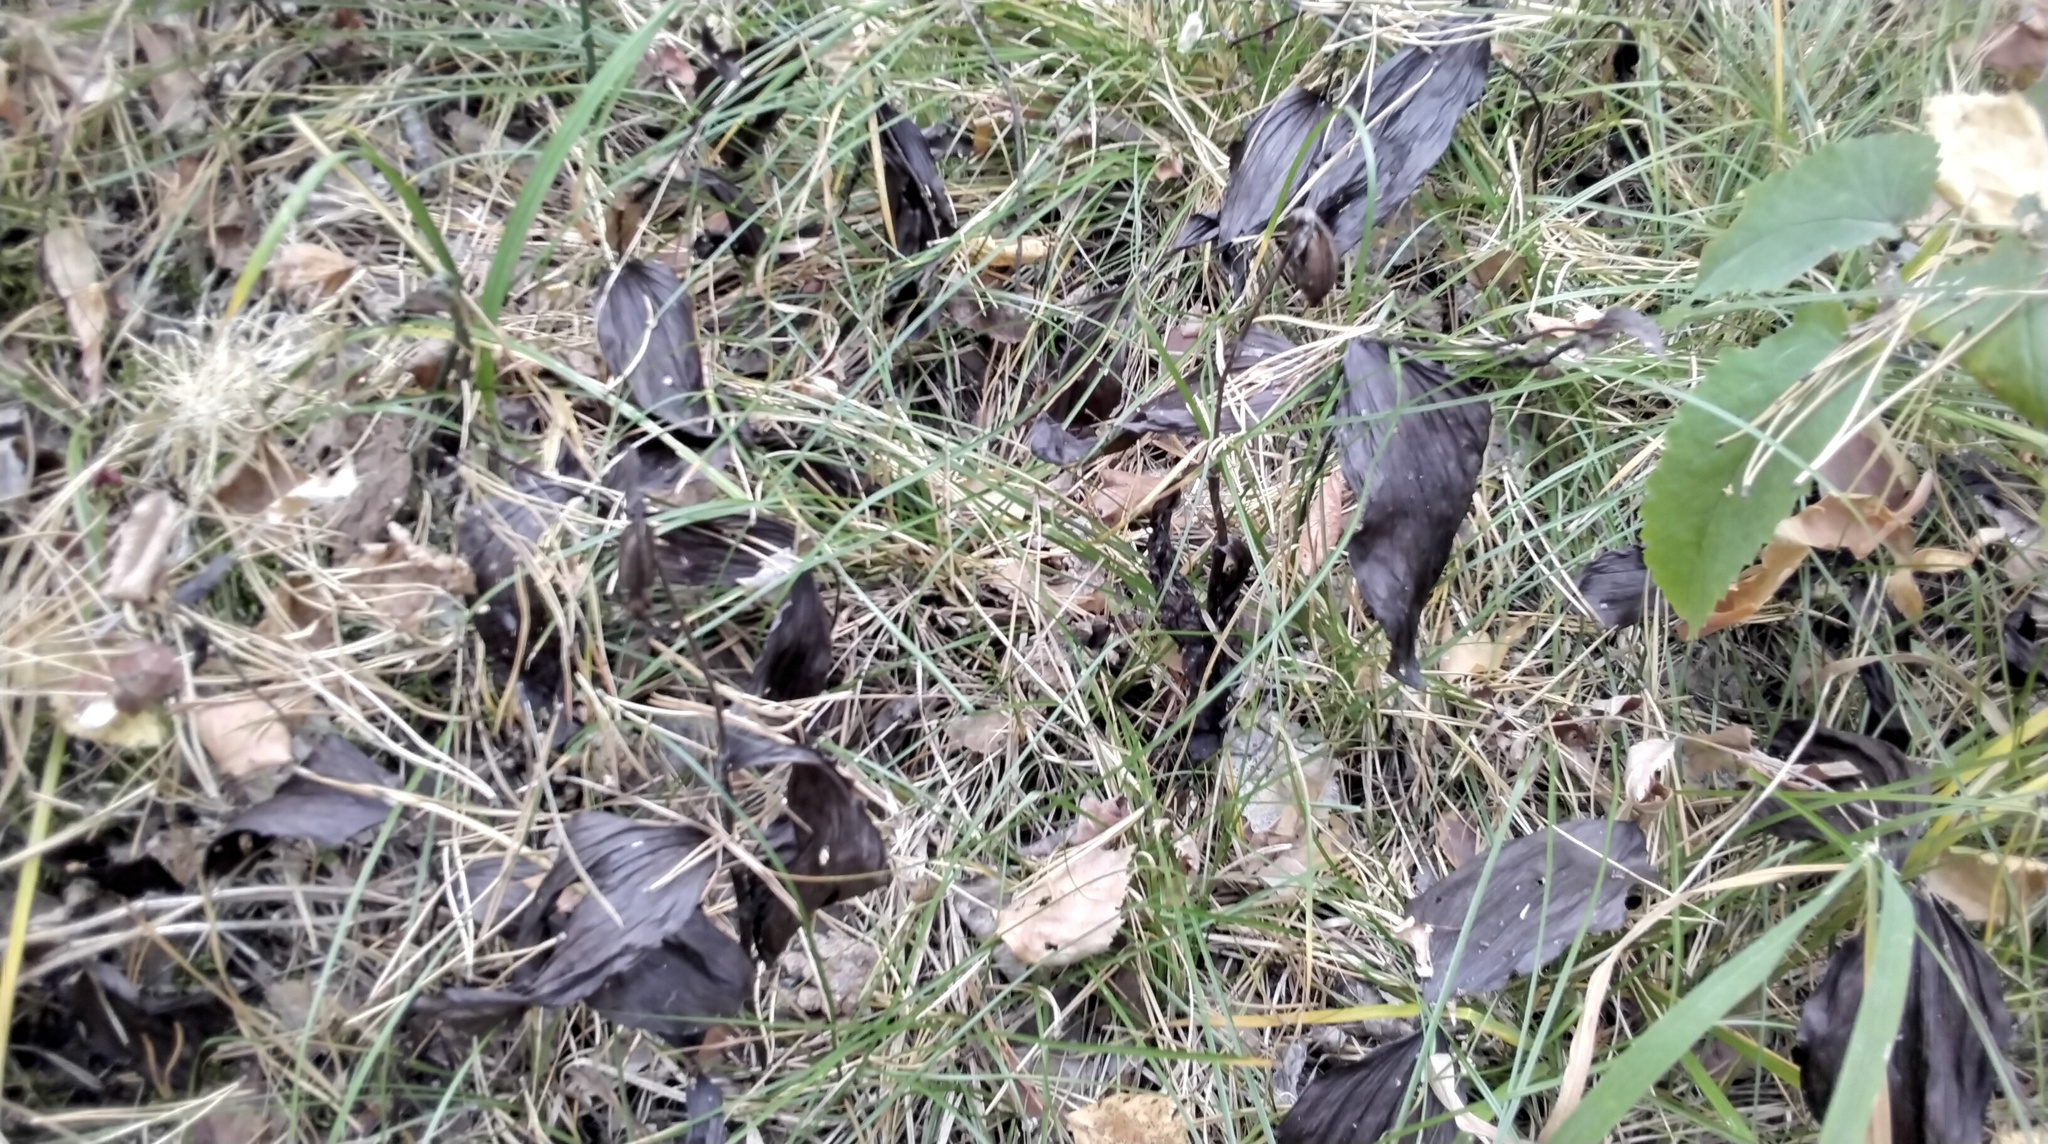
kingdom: Plantae
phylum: Tracheophyta
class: Liliopsida
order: Asparagales
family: Orchidaceae
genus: Cypripedium
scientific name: Cypripedium guttatum
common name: Pink lady slipper
